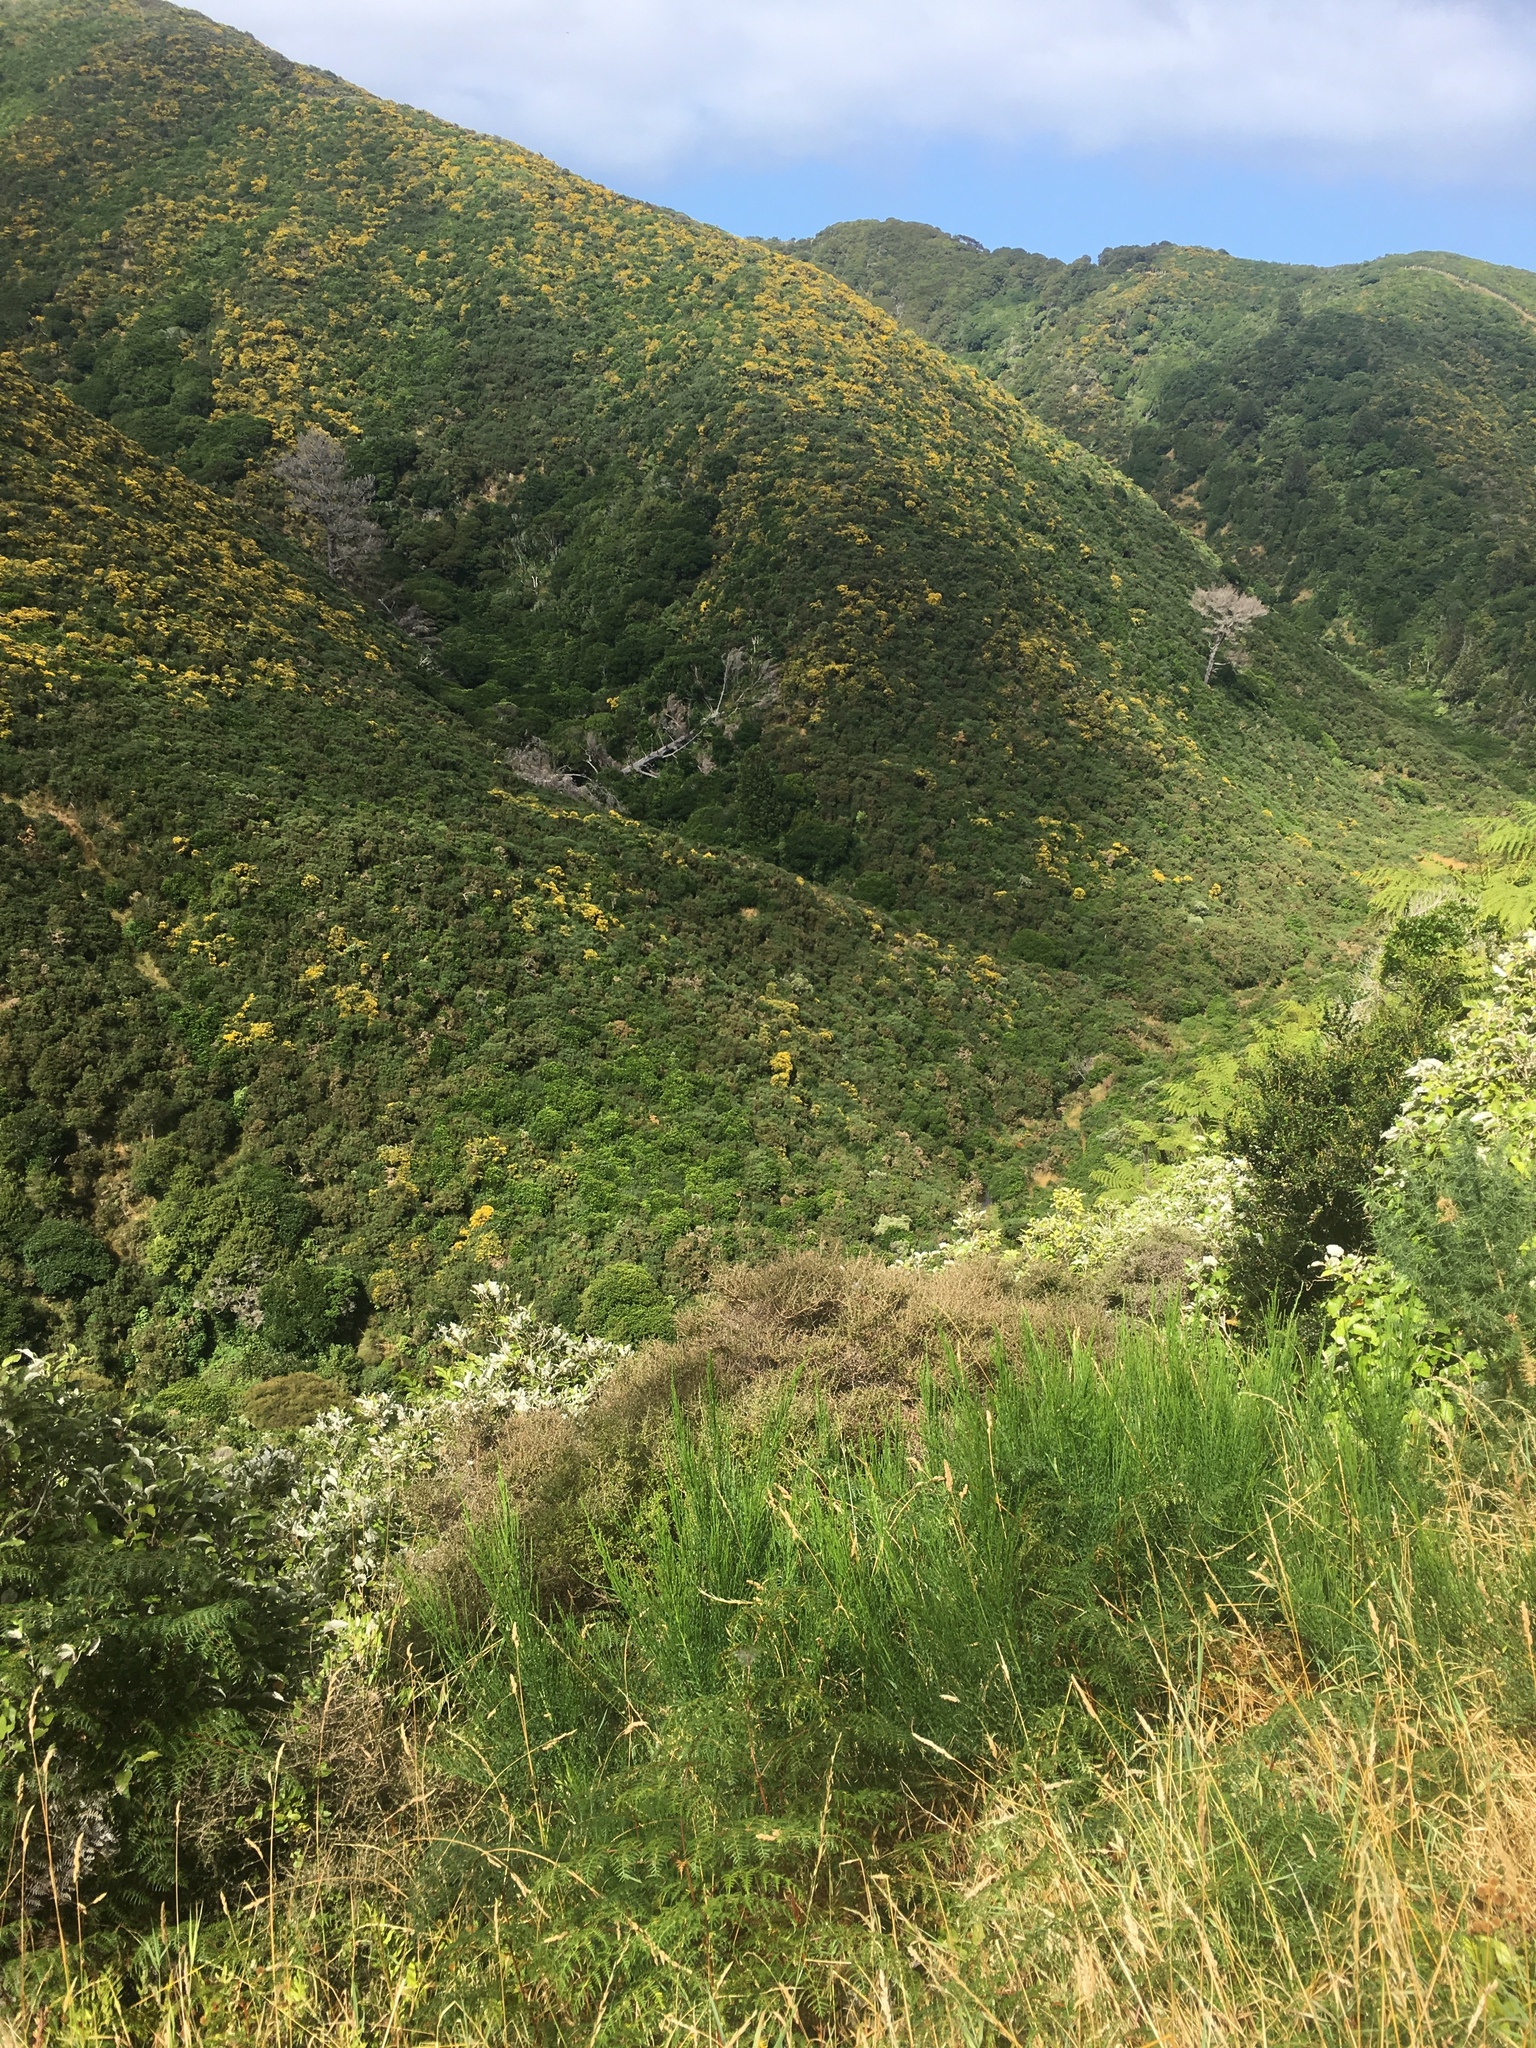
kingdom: Plantae
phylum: Tracheophyta
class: Magnoliopsida
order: Fabales
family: Fabaceae
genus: Cytisus
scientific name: Cytisus scoparius
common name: Scotch broom
